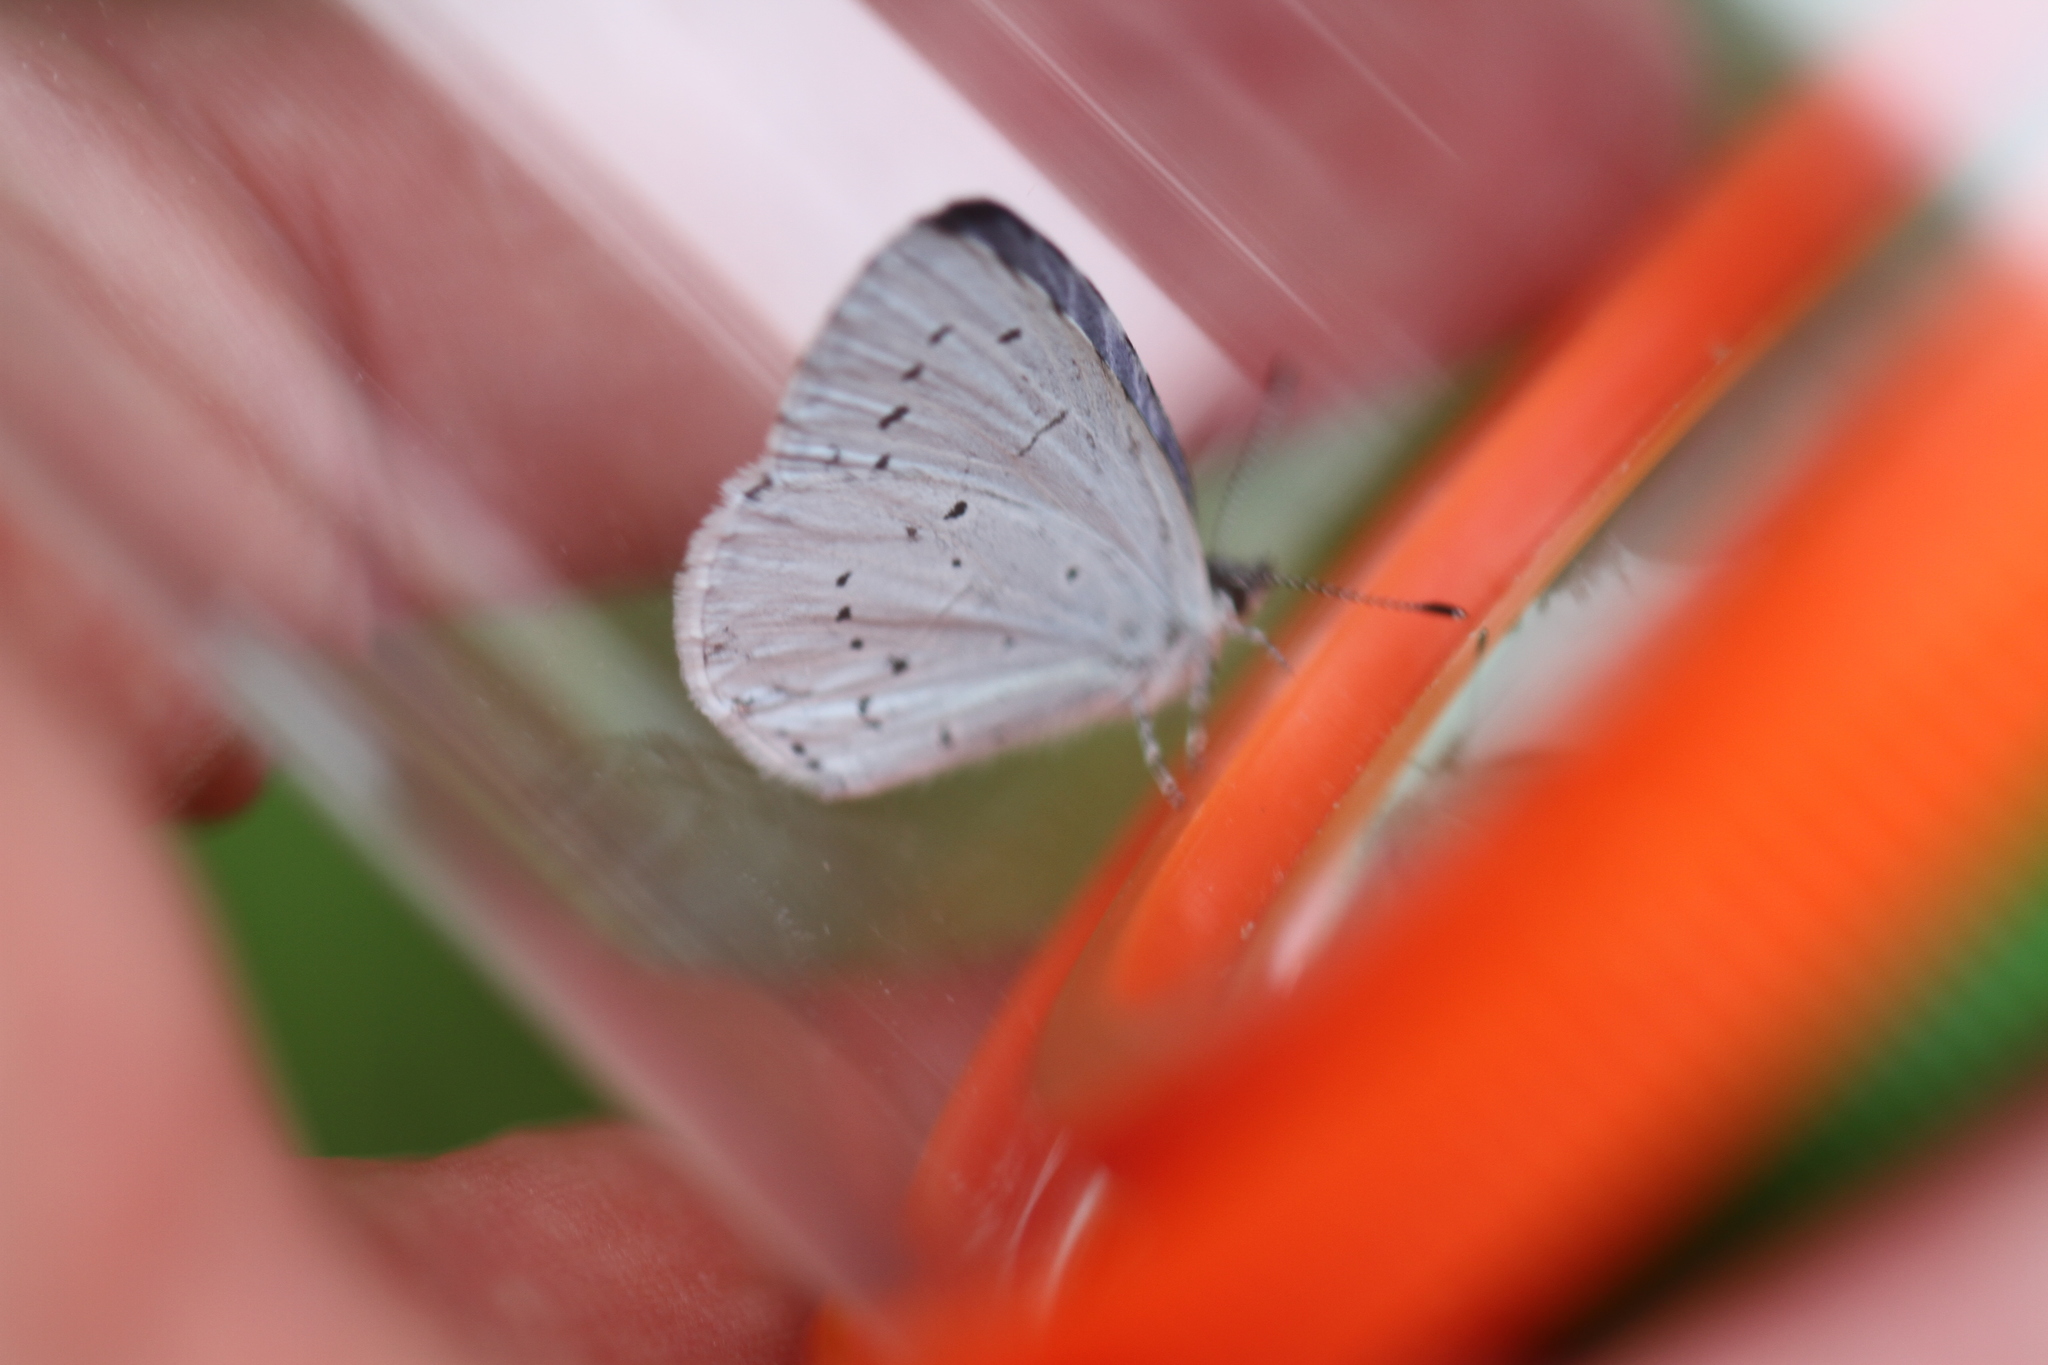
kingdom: Animalia
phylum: Arthropoda
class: Insecta
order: Lepidoptera
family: Lycaenidae
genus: Celastrina
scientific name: Celastrina argiolus
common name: Holly blue
